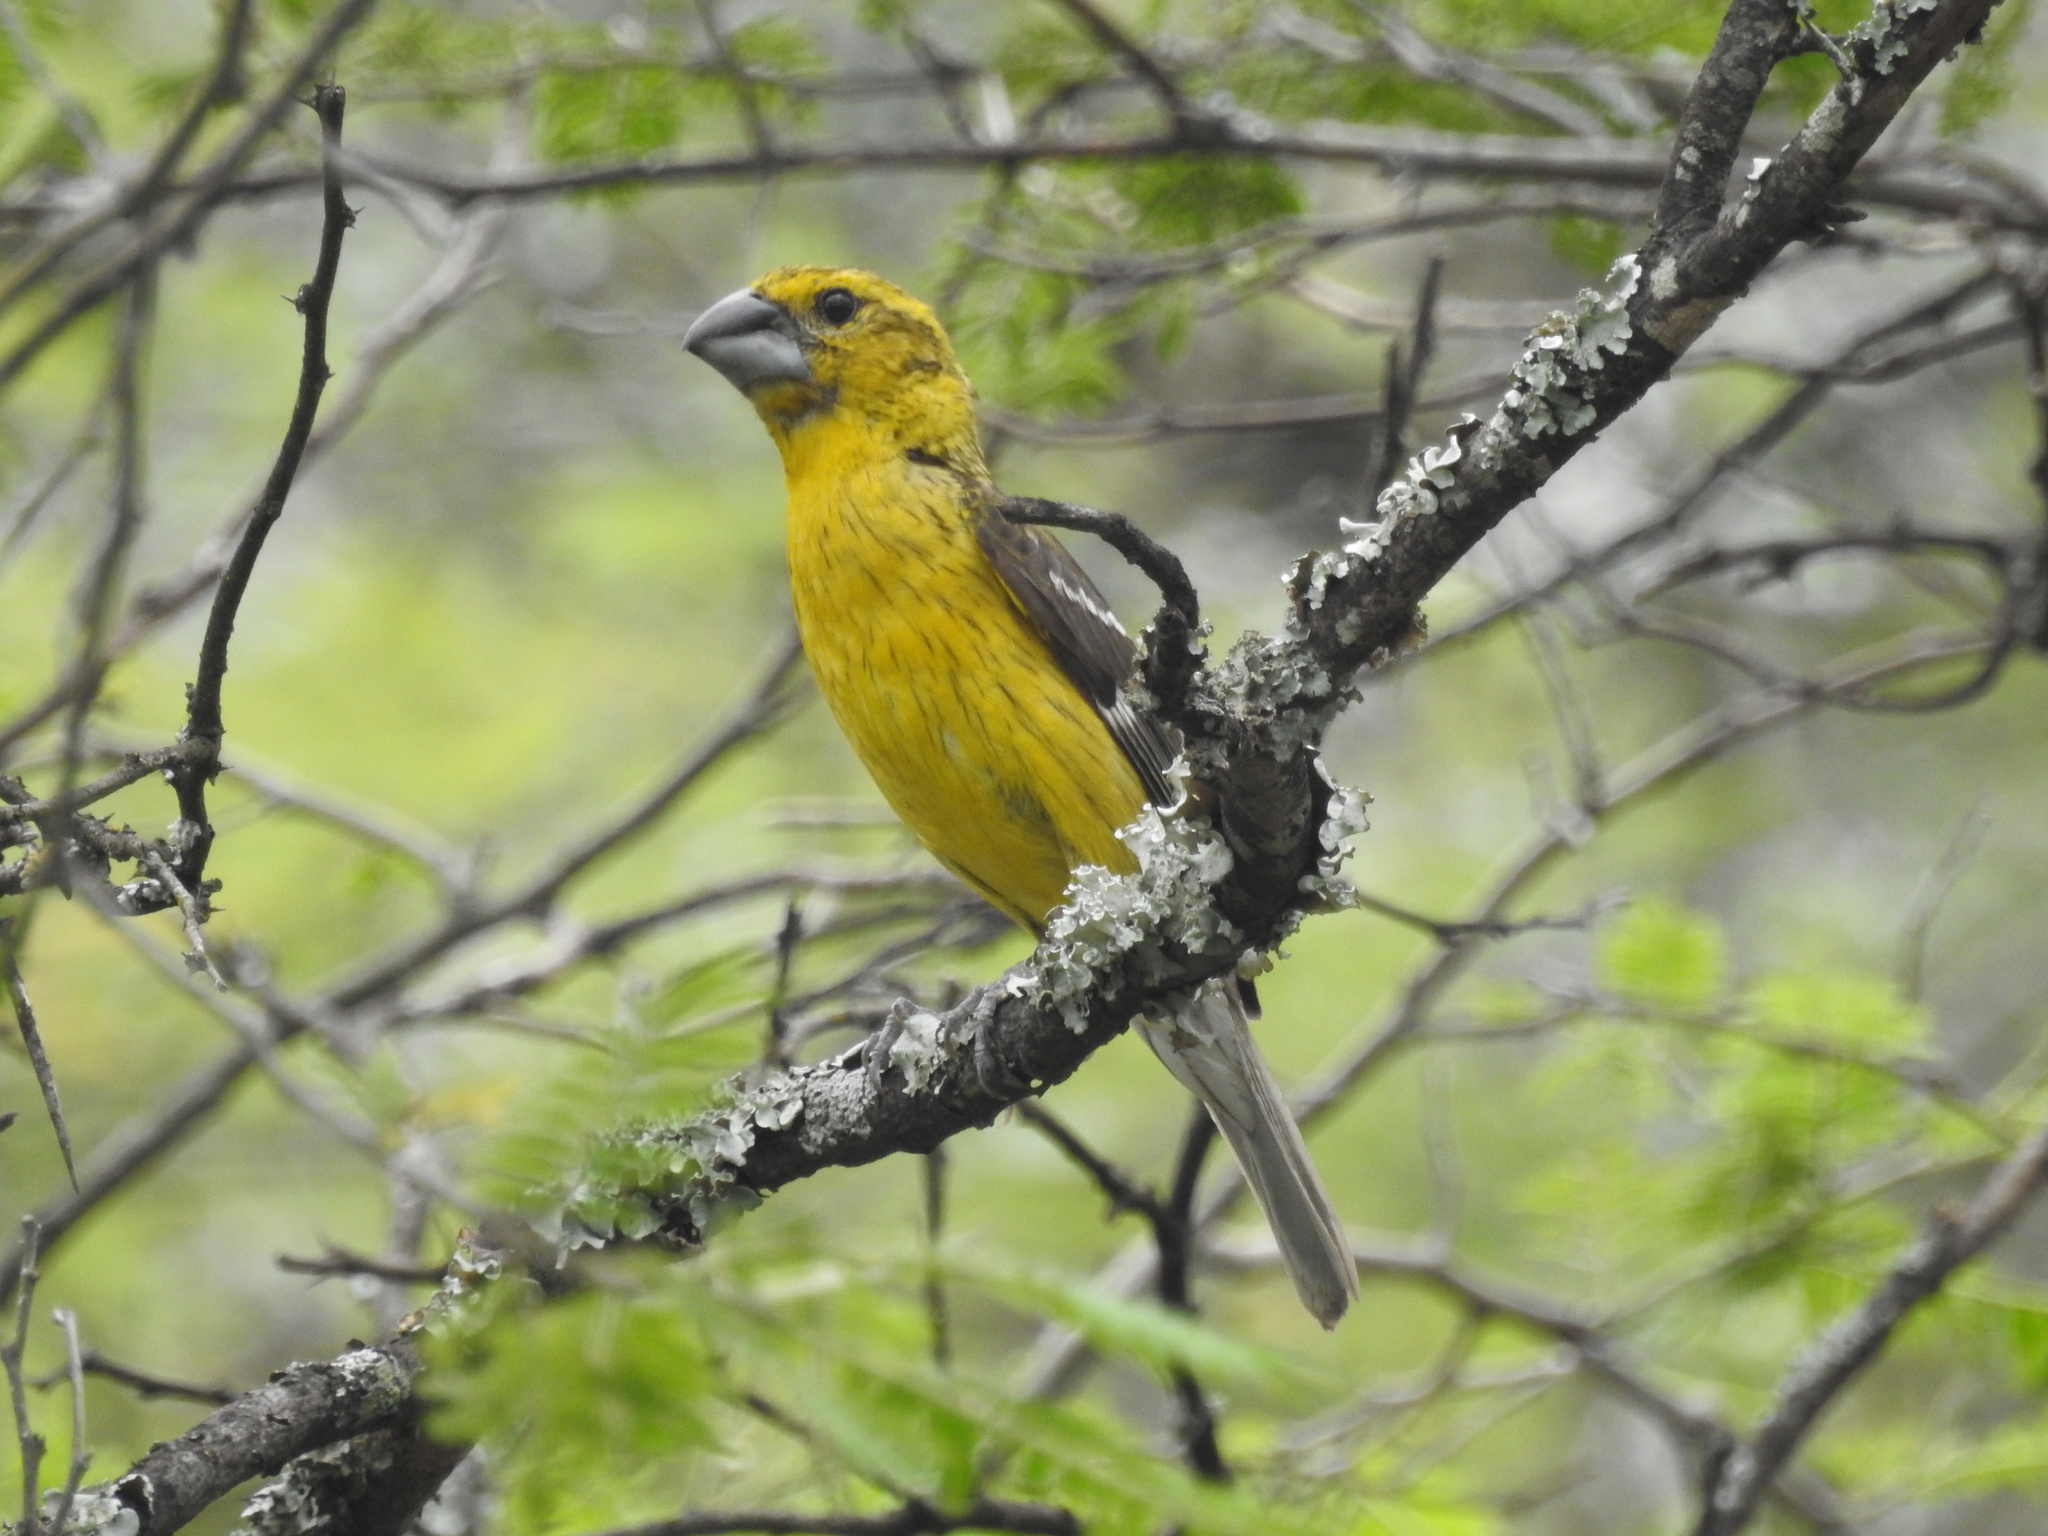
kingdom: Animalia
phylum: Chordata
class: Aves
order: Passeriformes
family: Cardinalidae
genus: Pheucticus
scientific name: Pheucticus chrysogaster
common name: Golden grosbeak
